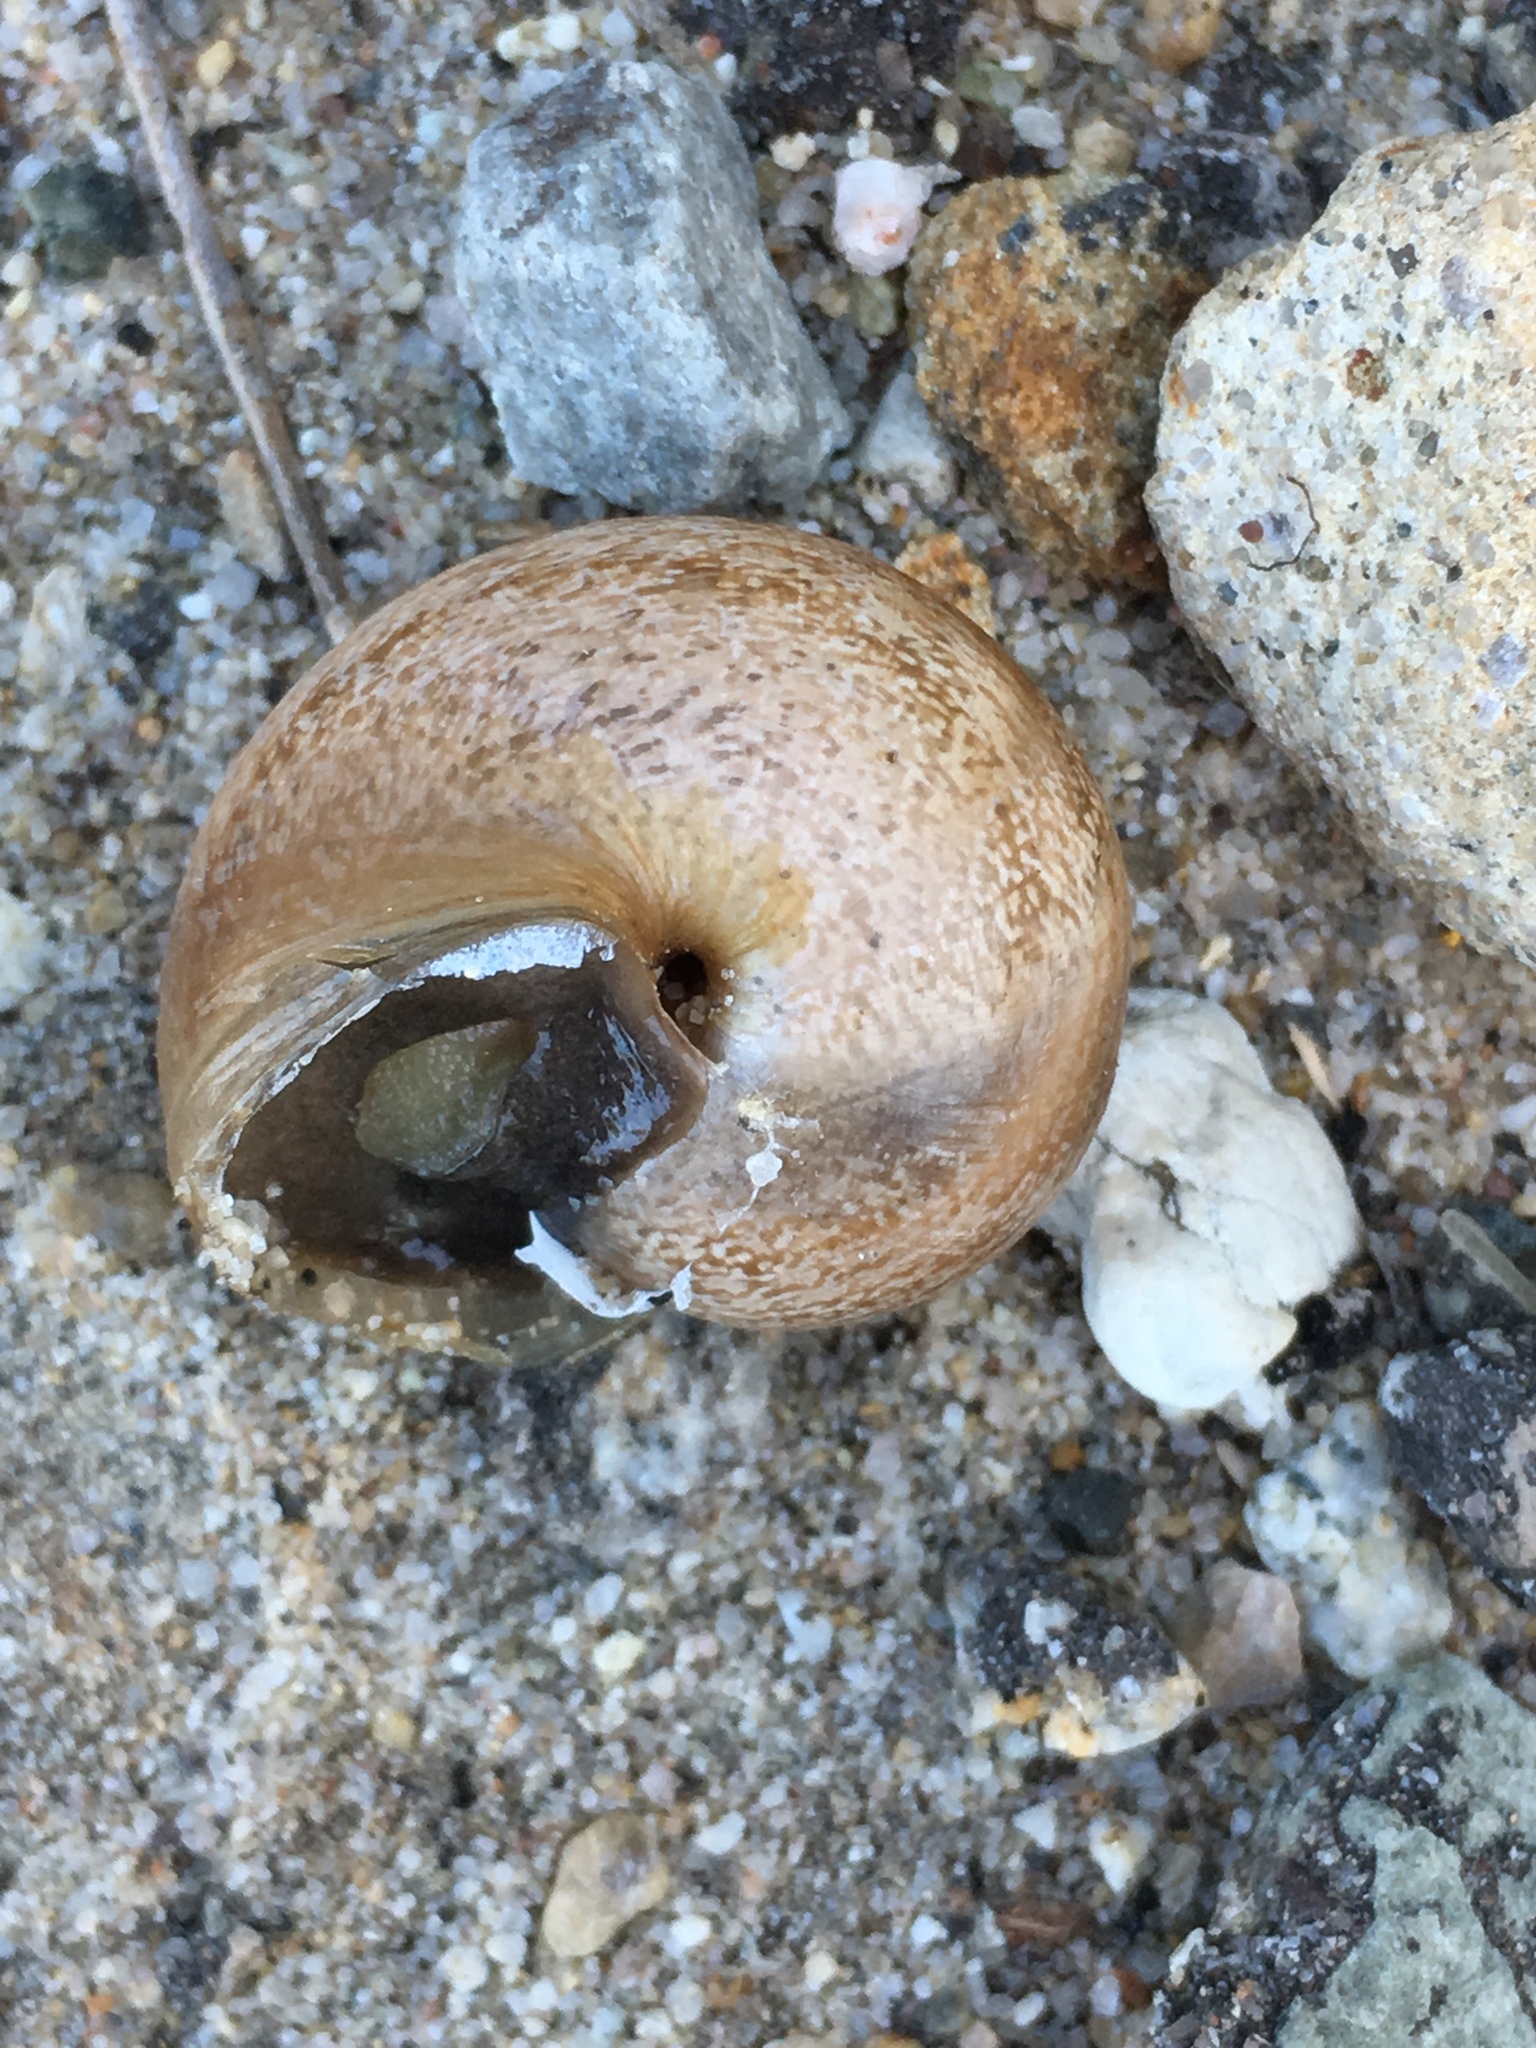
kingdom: Animalia
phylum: Mollusca
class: Gastropoda
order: Stylommatophora
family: Helicidae
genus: Otala
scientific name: Otala lactea
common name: Milk snail
